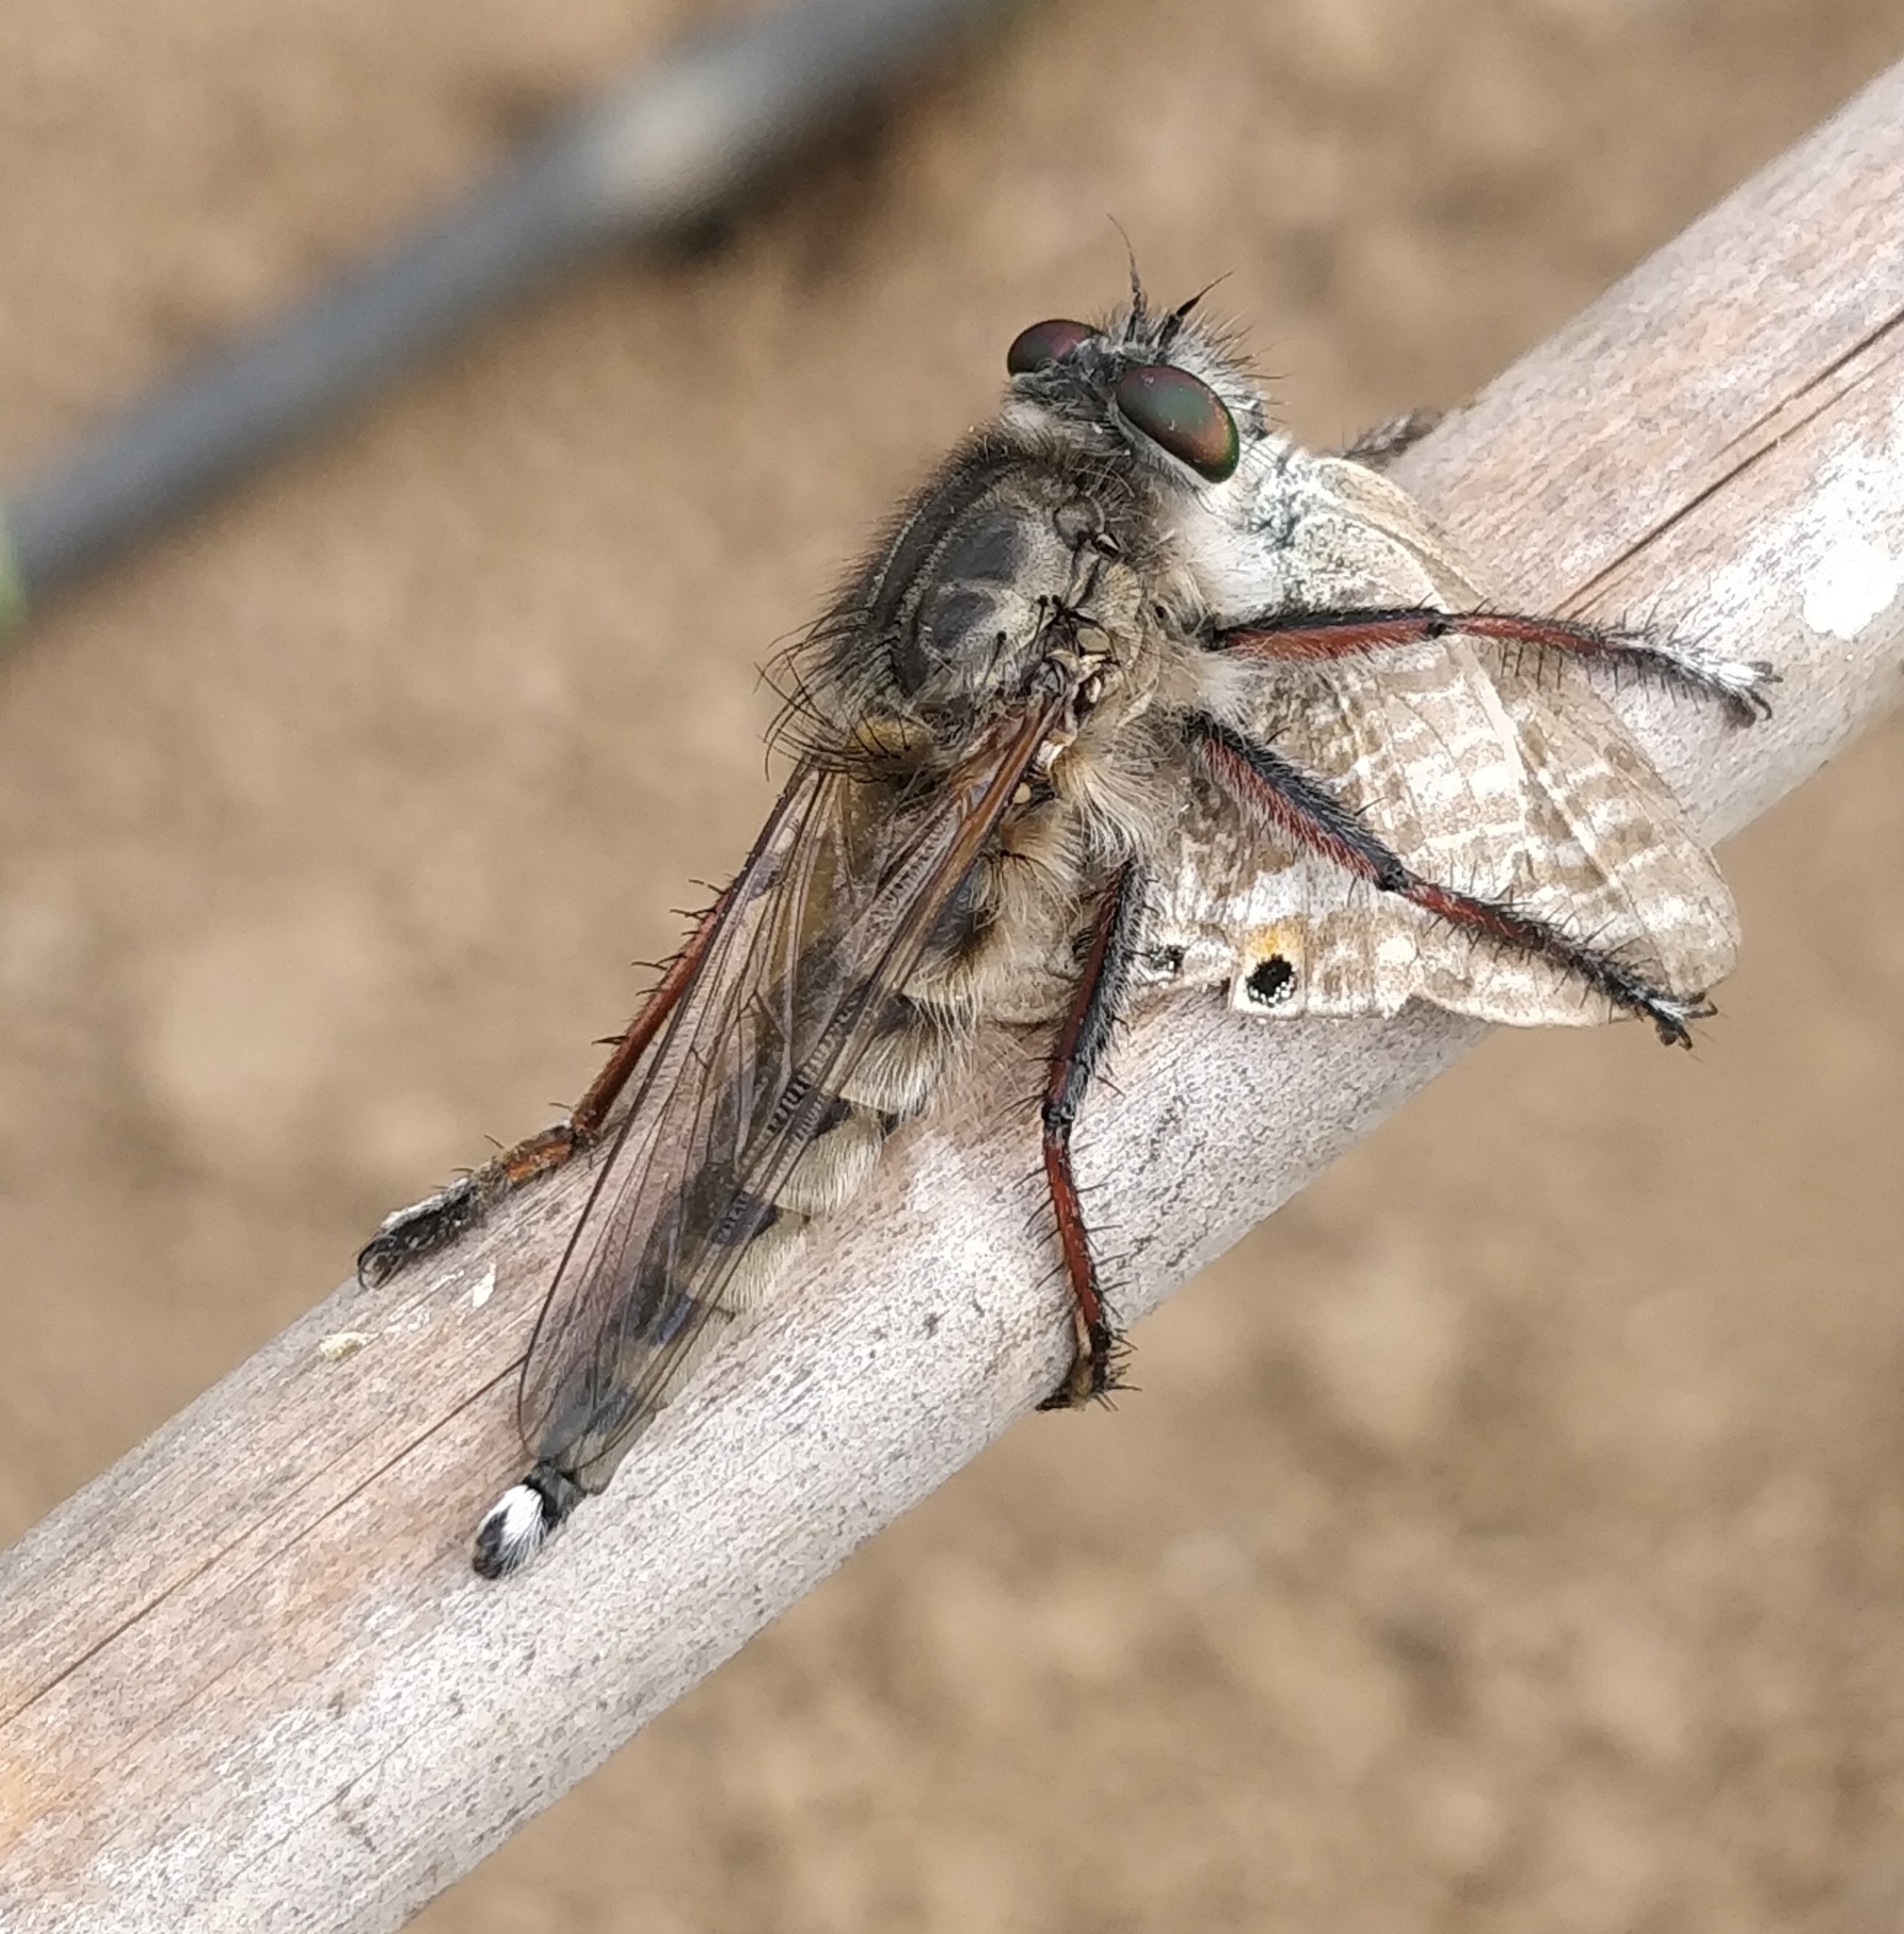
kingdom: Animalia
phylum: Arthropoda
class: Insecta
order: Diptera
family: Asilidae
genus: Promachus
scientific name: Promachus vexator
